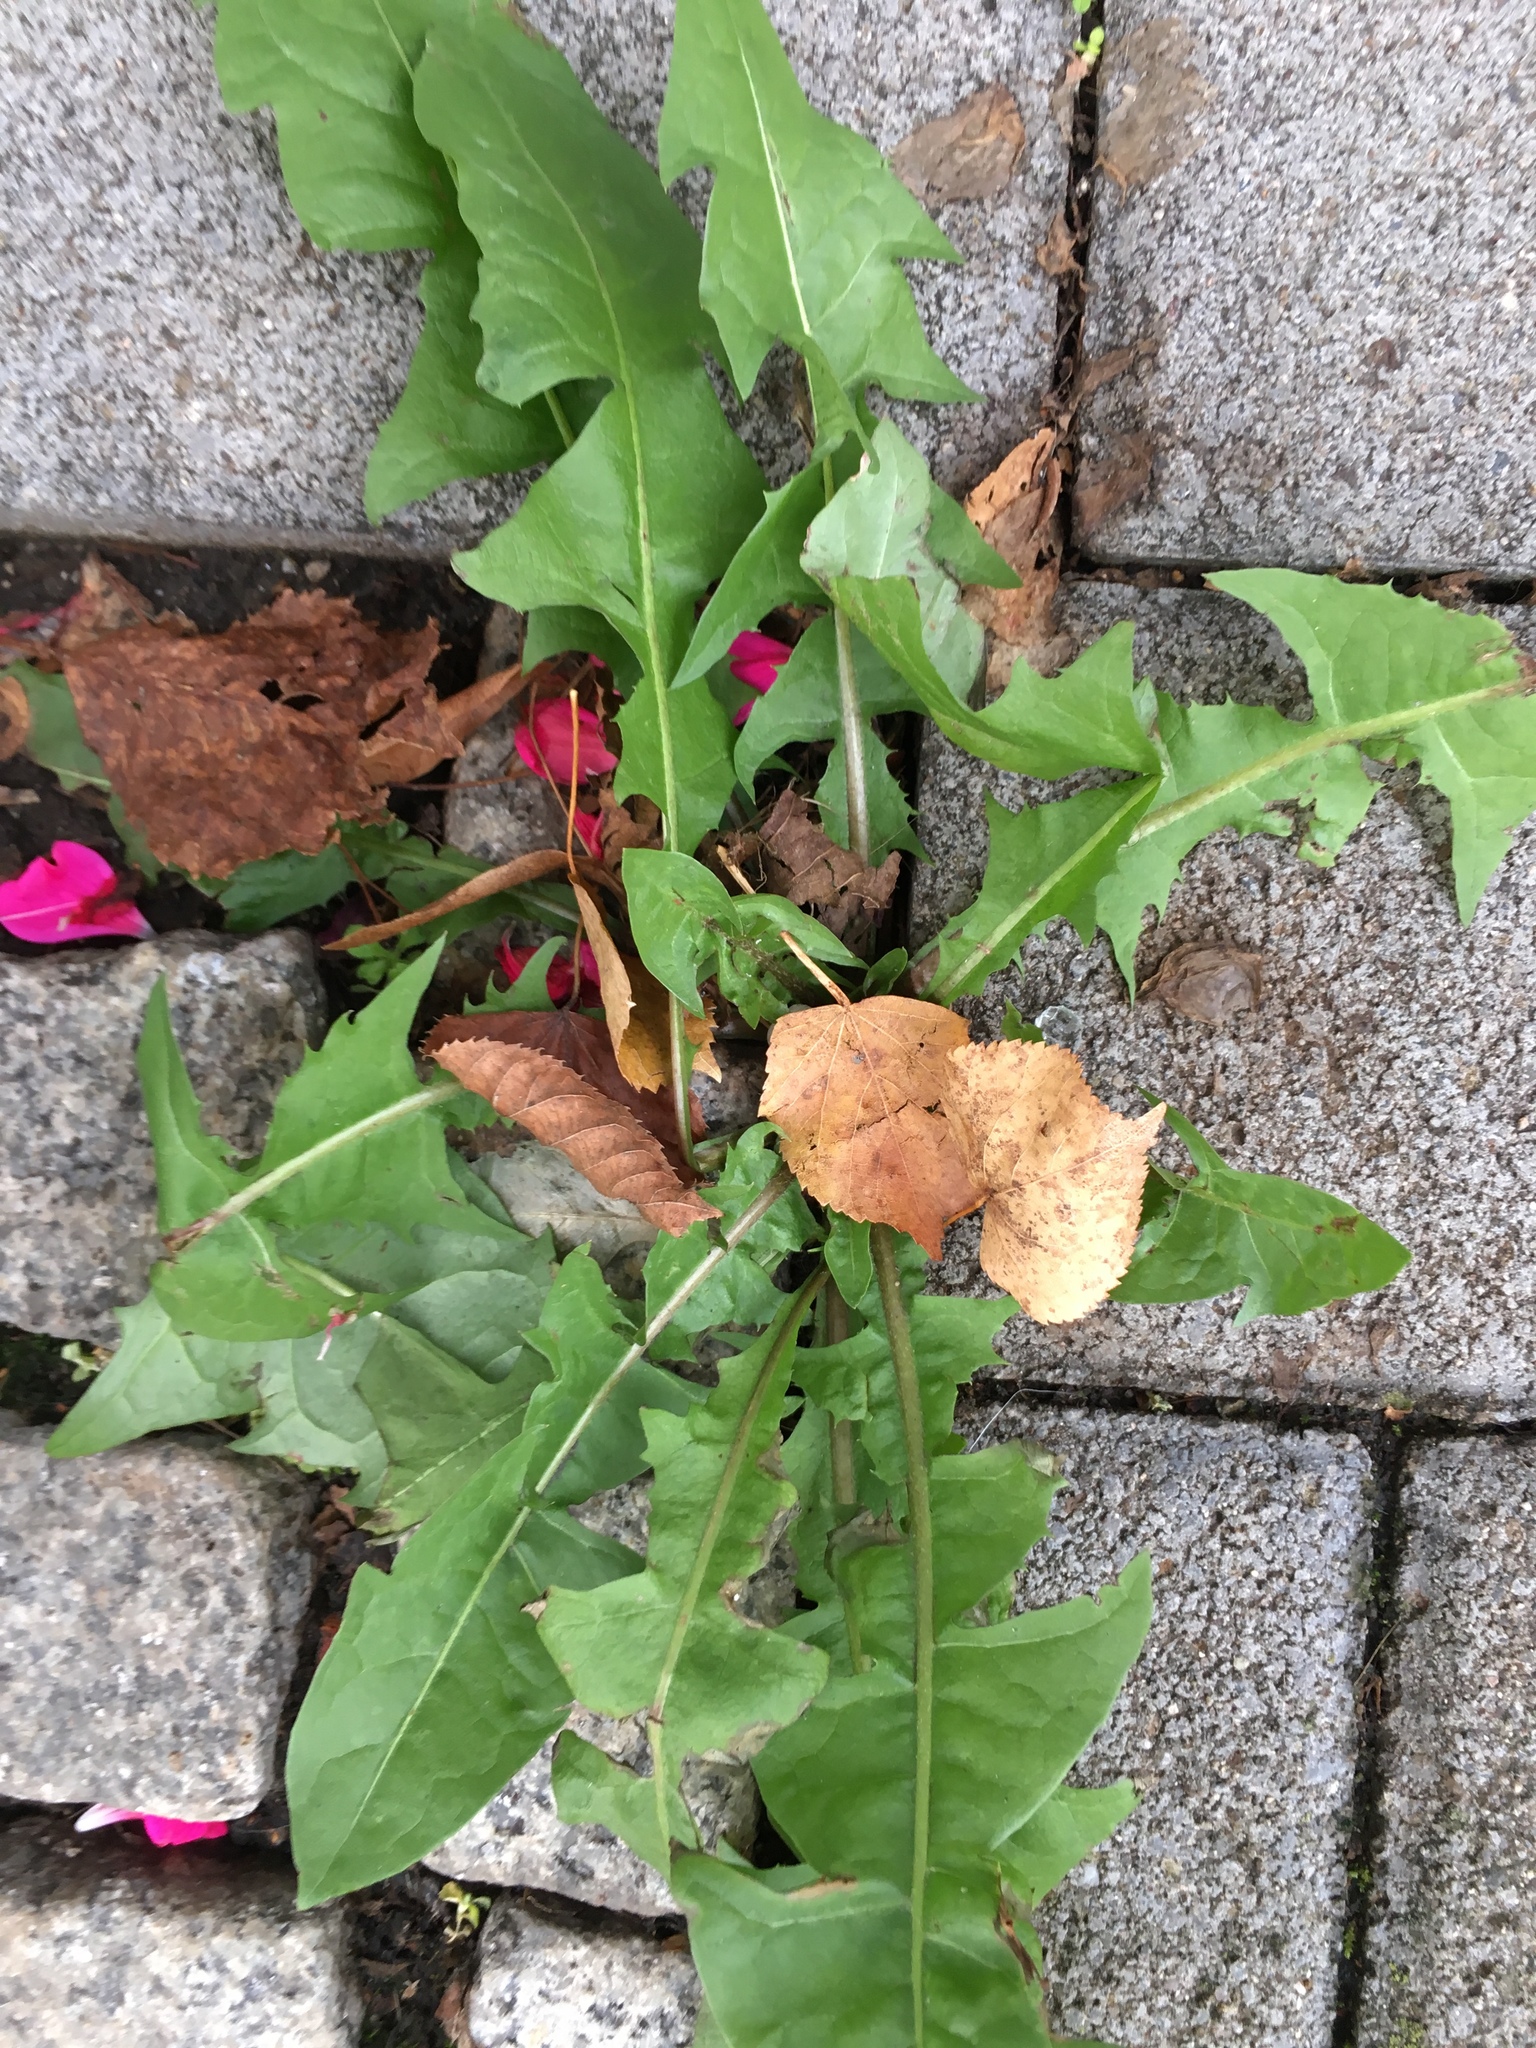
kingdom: Plantae
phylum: Tracheophyta
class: Magnoliopsida
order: Asterales
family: Asteraceae
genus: Taraxacum
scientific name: Taraxacum officinale
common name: Common dandelion
